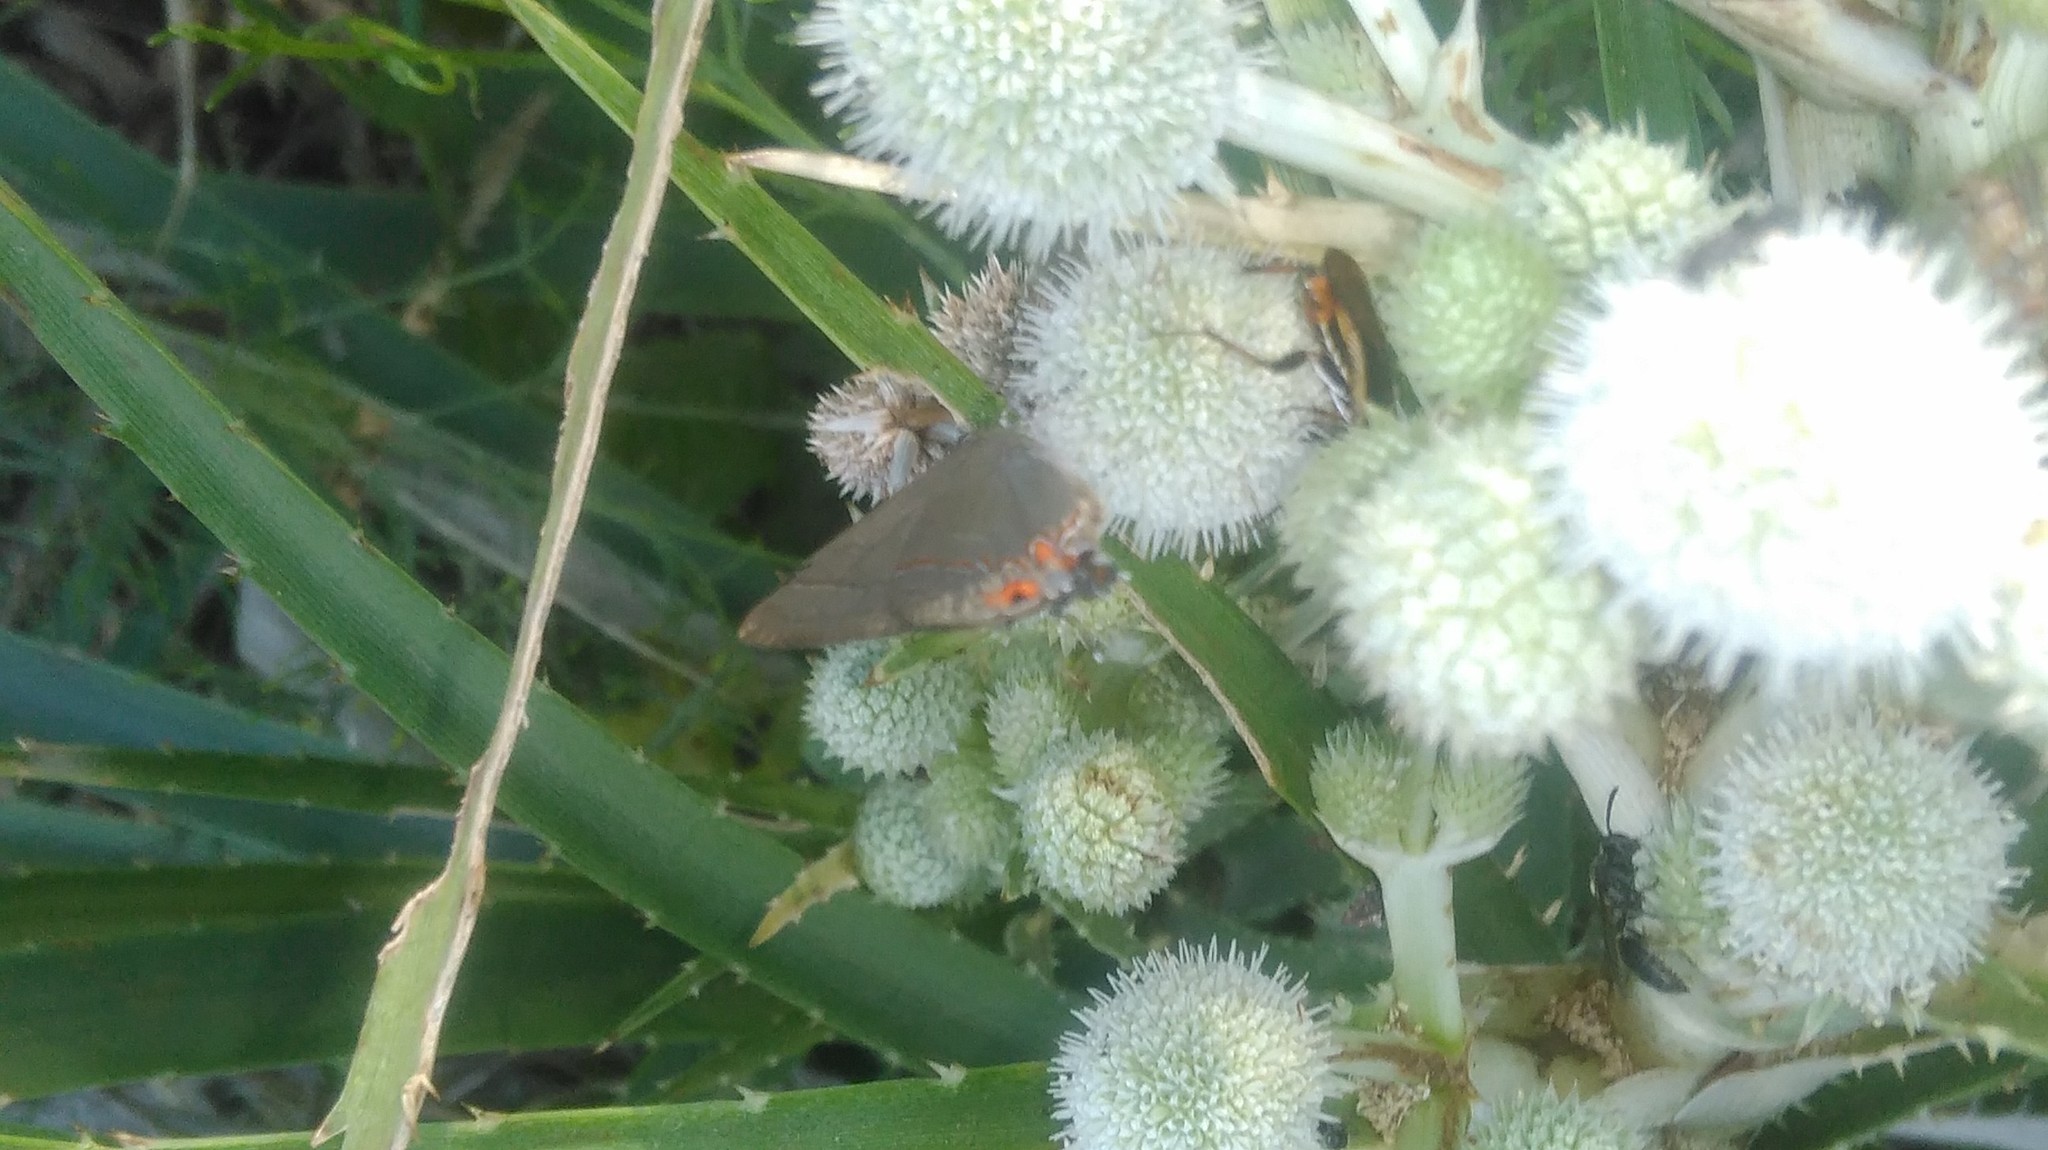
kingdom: Animalia
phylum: Arthropoda
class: Insecta
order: Lepidoptera
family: Lycaenidae
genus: Calycopis
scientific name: Calycopis caulonia
